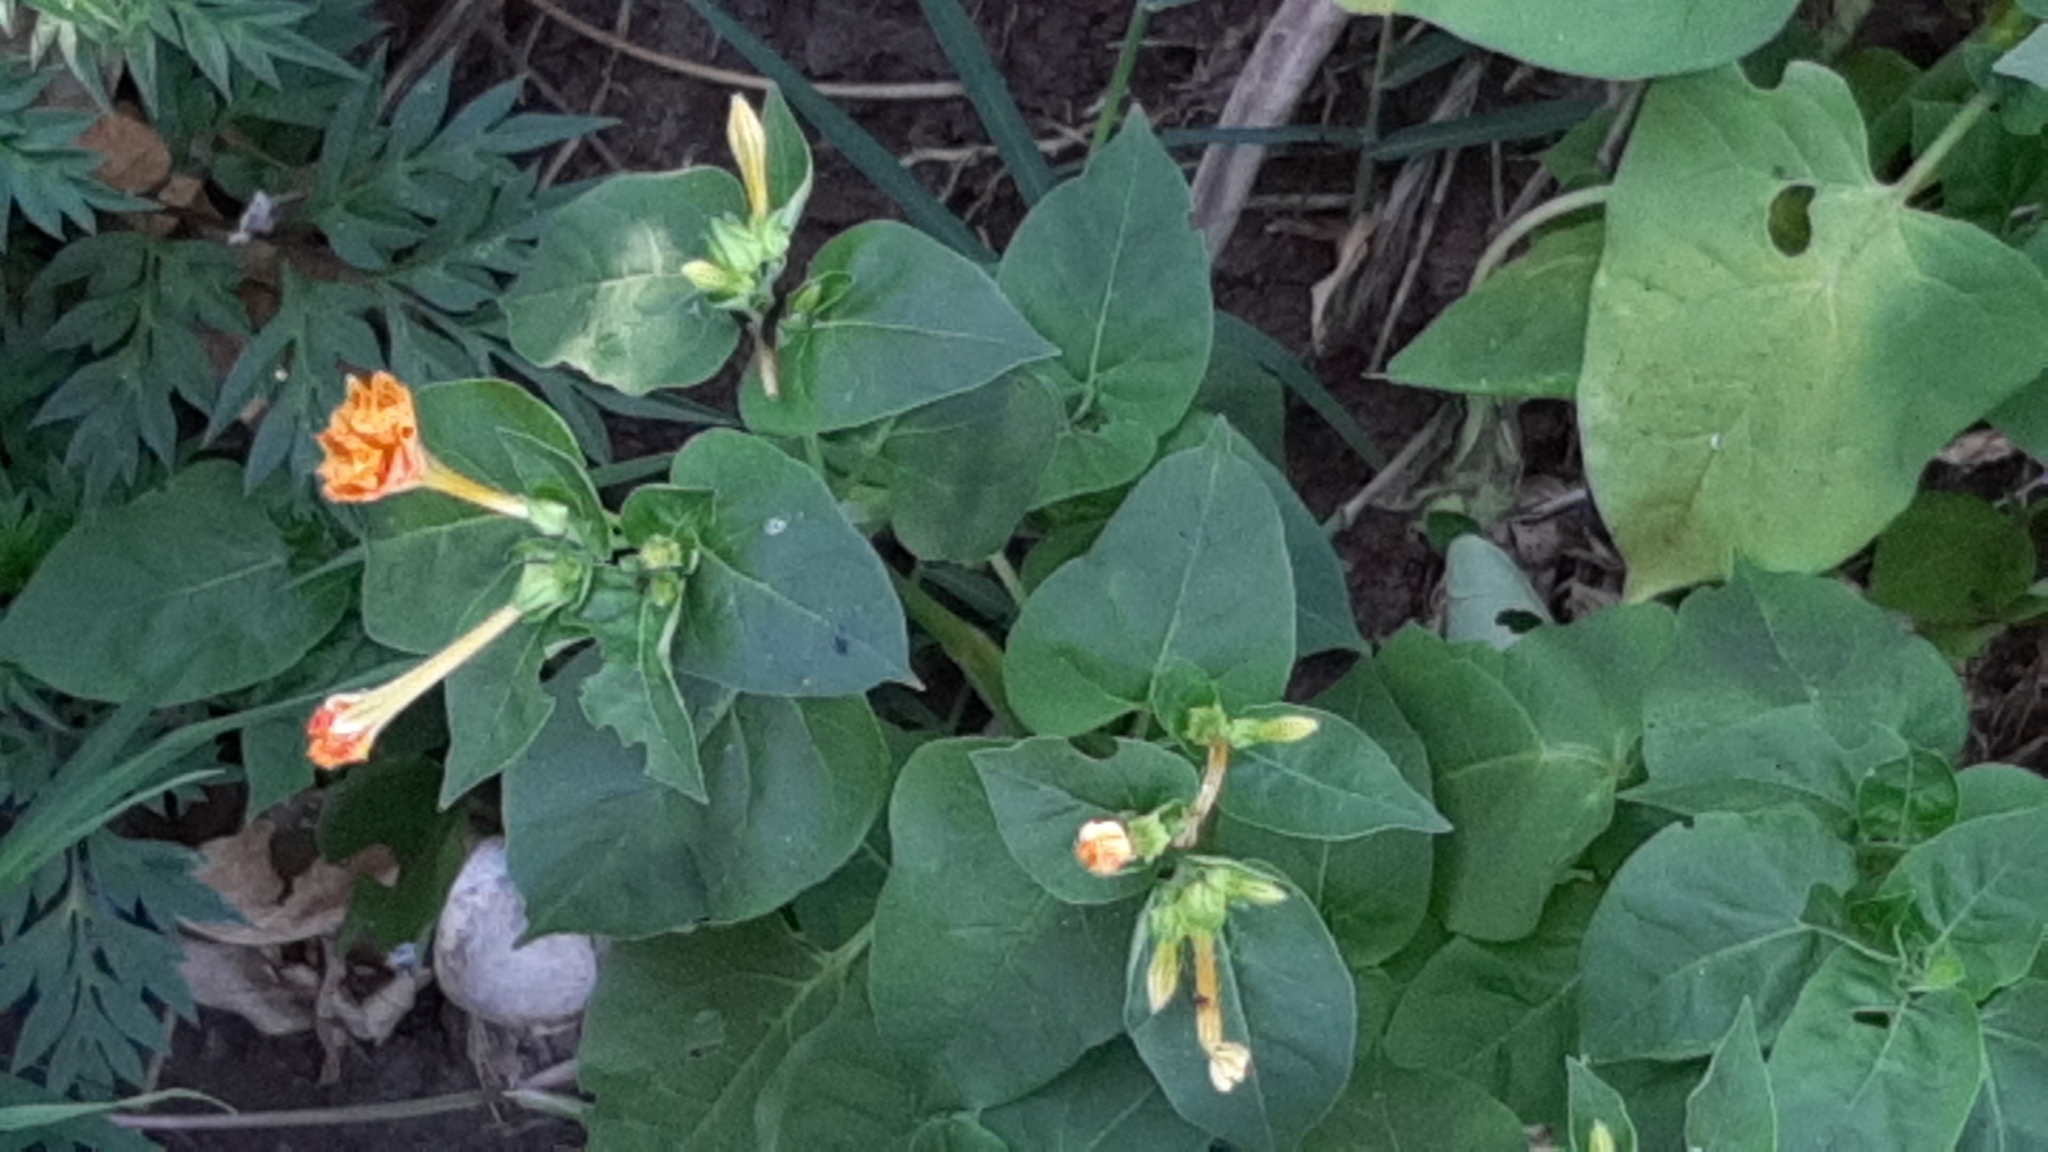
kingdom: Plantae
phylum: Tracheophyta
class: Magnoliopsida
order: Caryophyllales
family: Nyctaginaceae
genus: Mirabilis
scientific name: Mirabilis jalapa
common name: Marvel-of-peru
